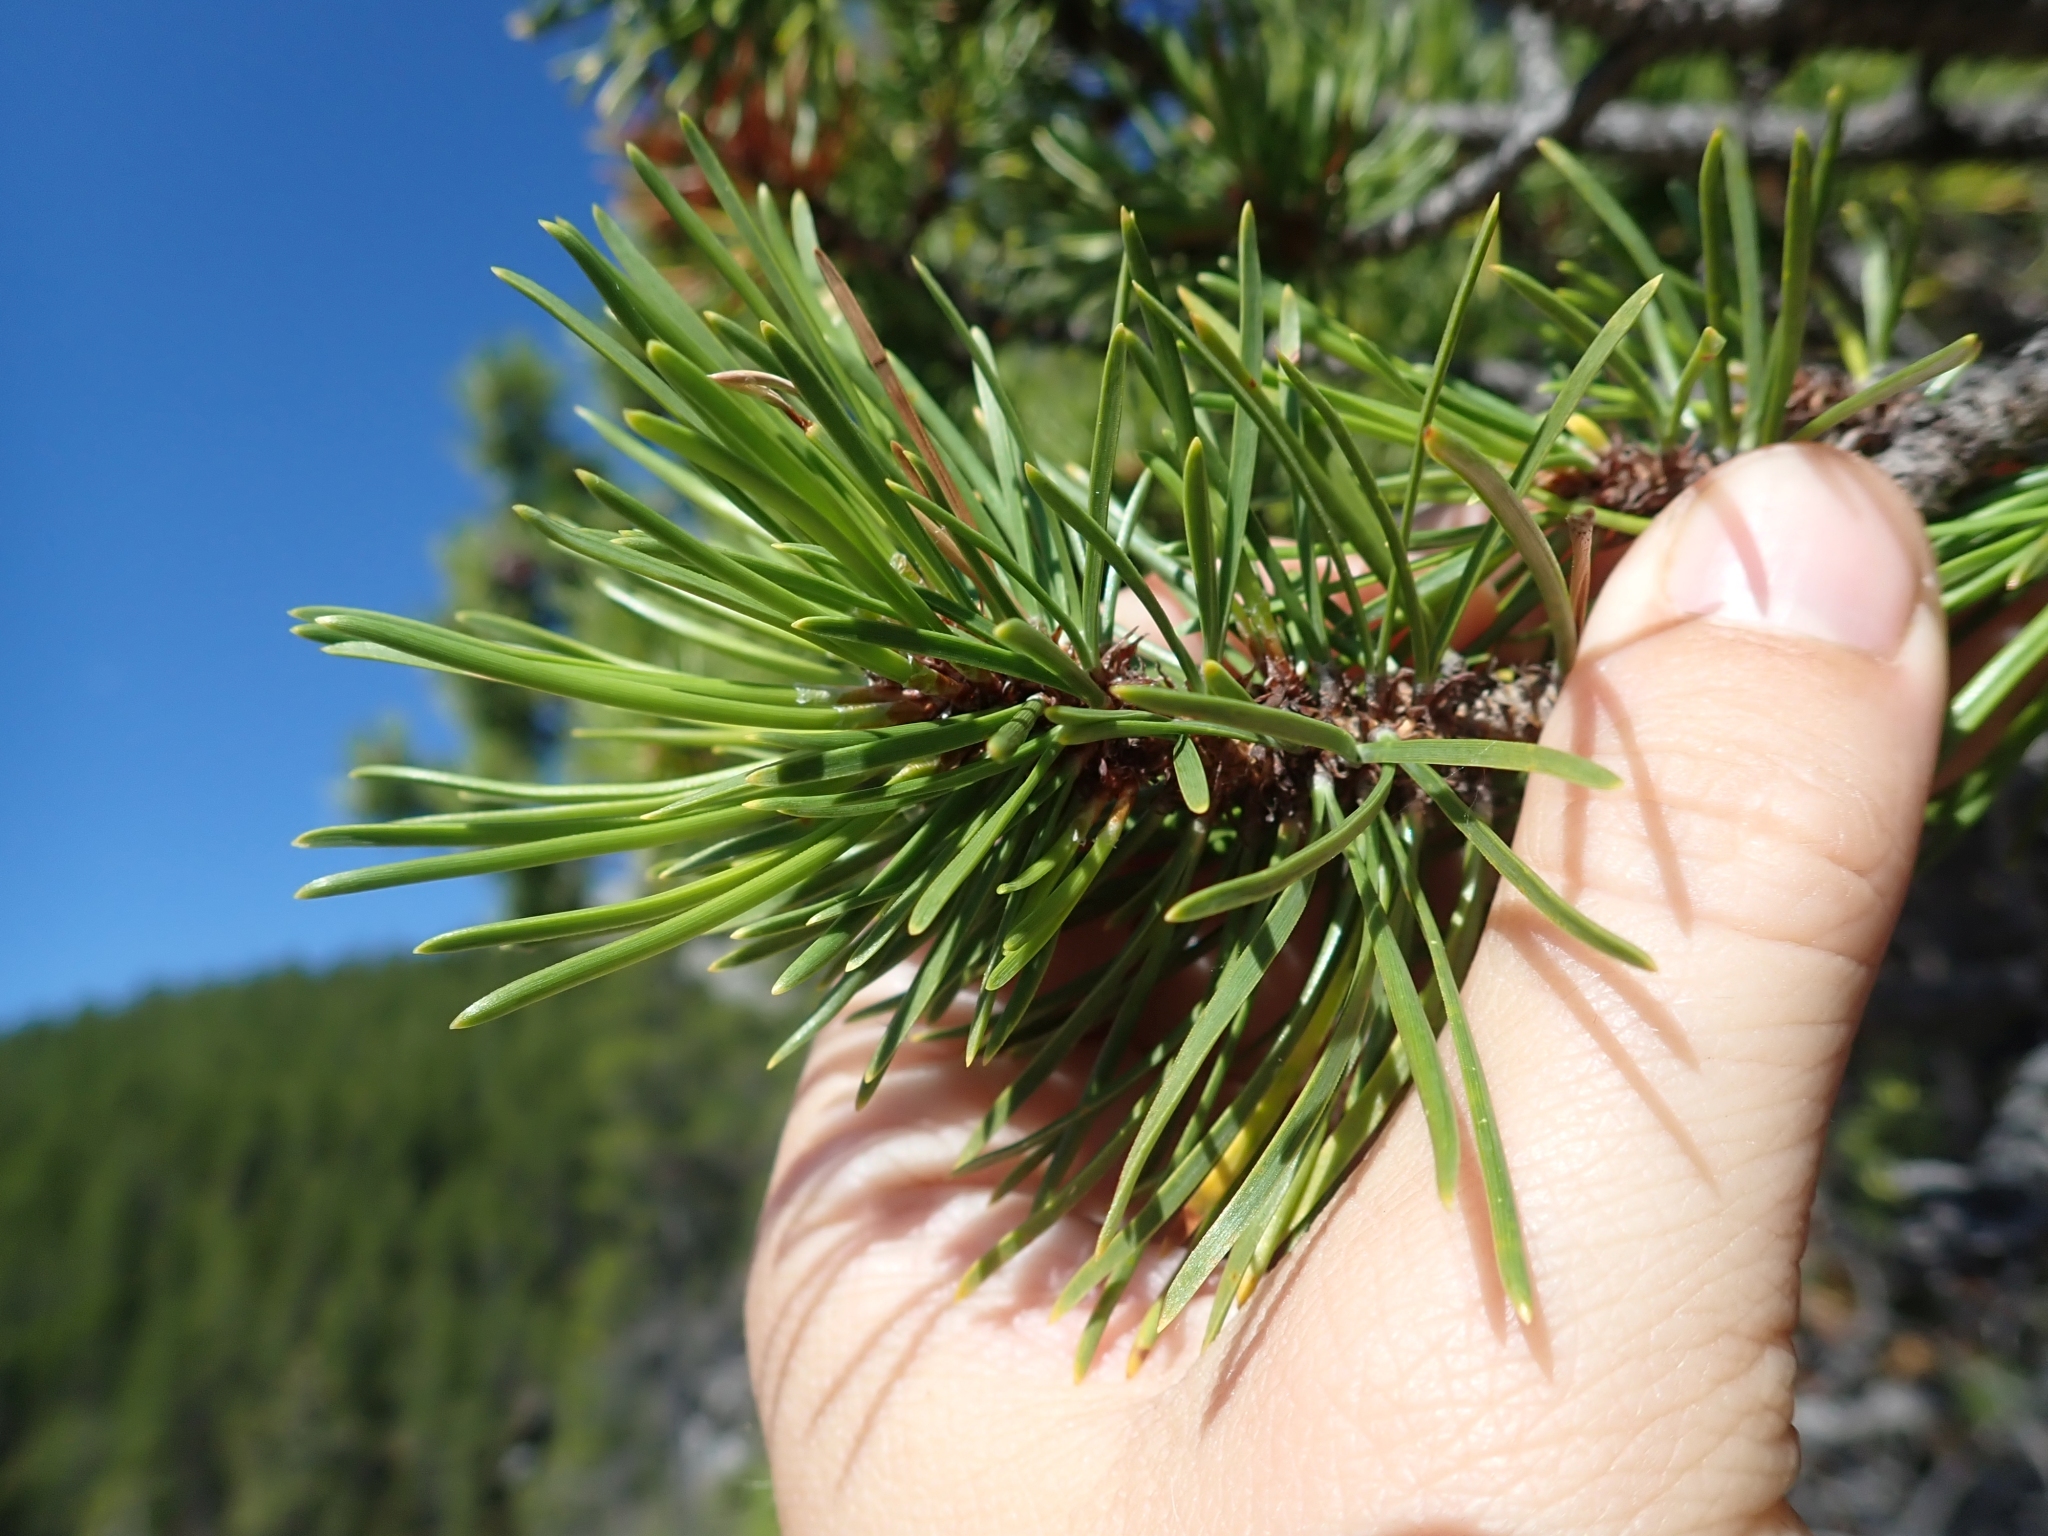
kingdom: Plantae
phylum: Tracheophyta
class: Pinopsida
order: Pinales
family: Pinaceae
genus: Pinus
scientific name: Pinus contorta
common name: Lodgepole pine
